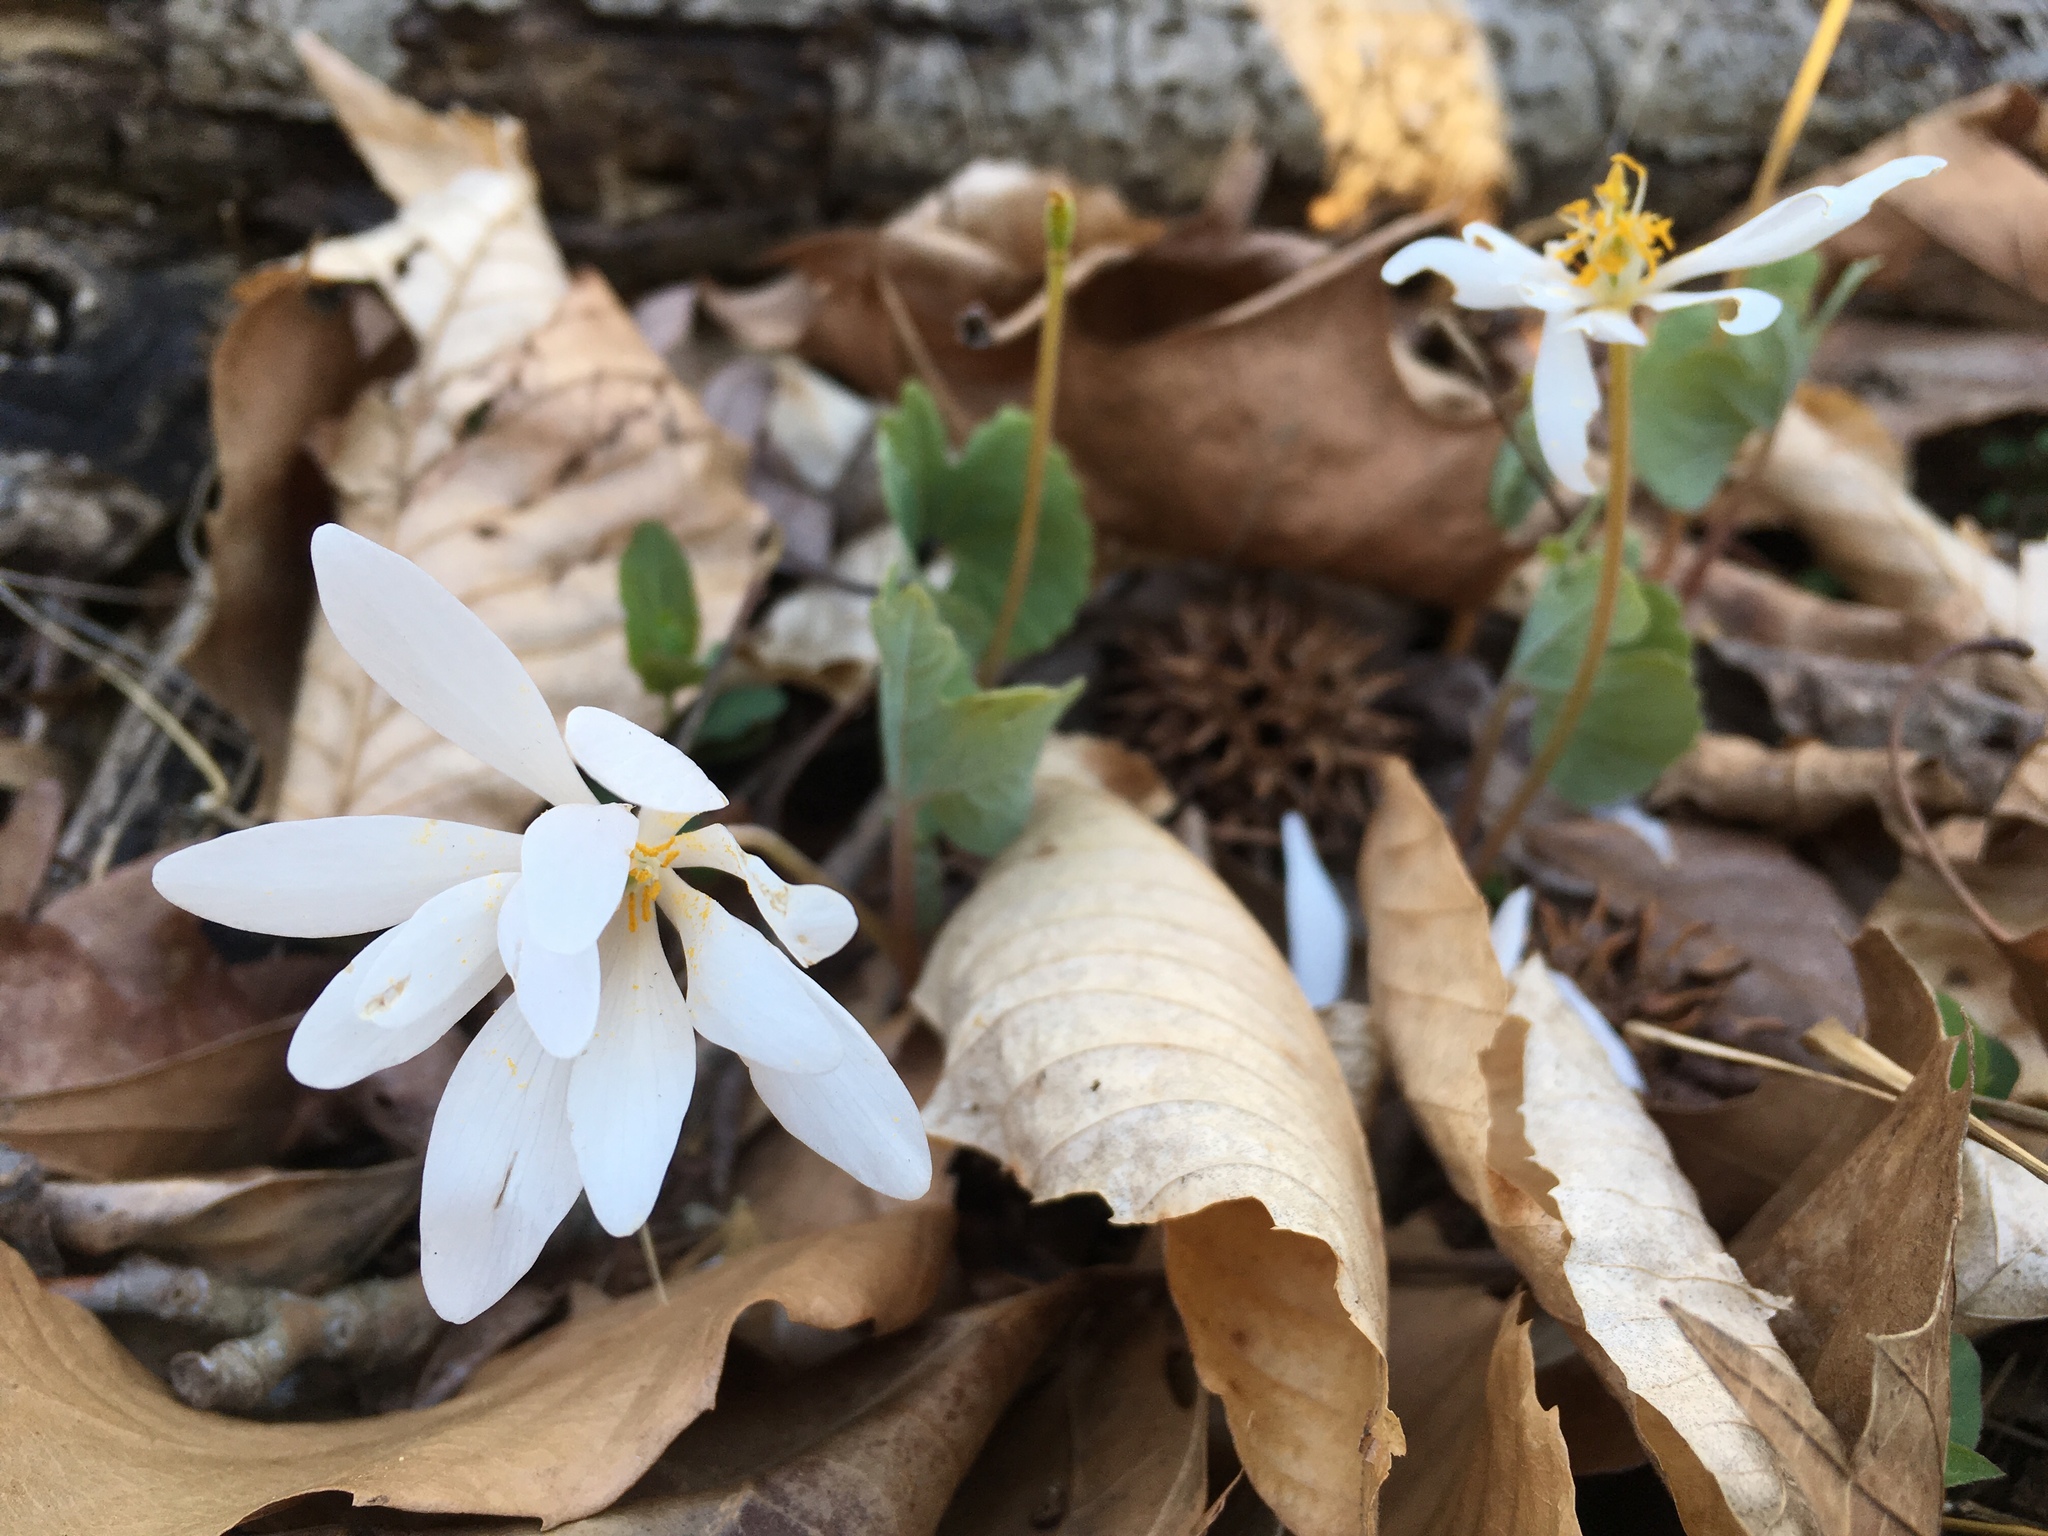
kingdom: Plantae
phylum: Tracheophyta
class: Magnoliopsida
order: Ranunculales
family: Papaveraceae
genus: Sanguinaria
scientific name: Sanguinaria canadensis
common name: Bloodroot
